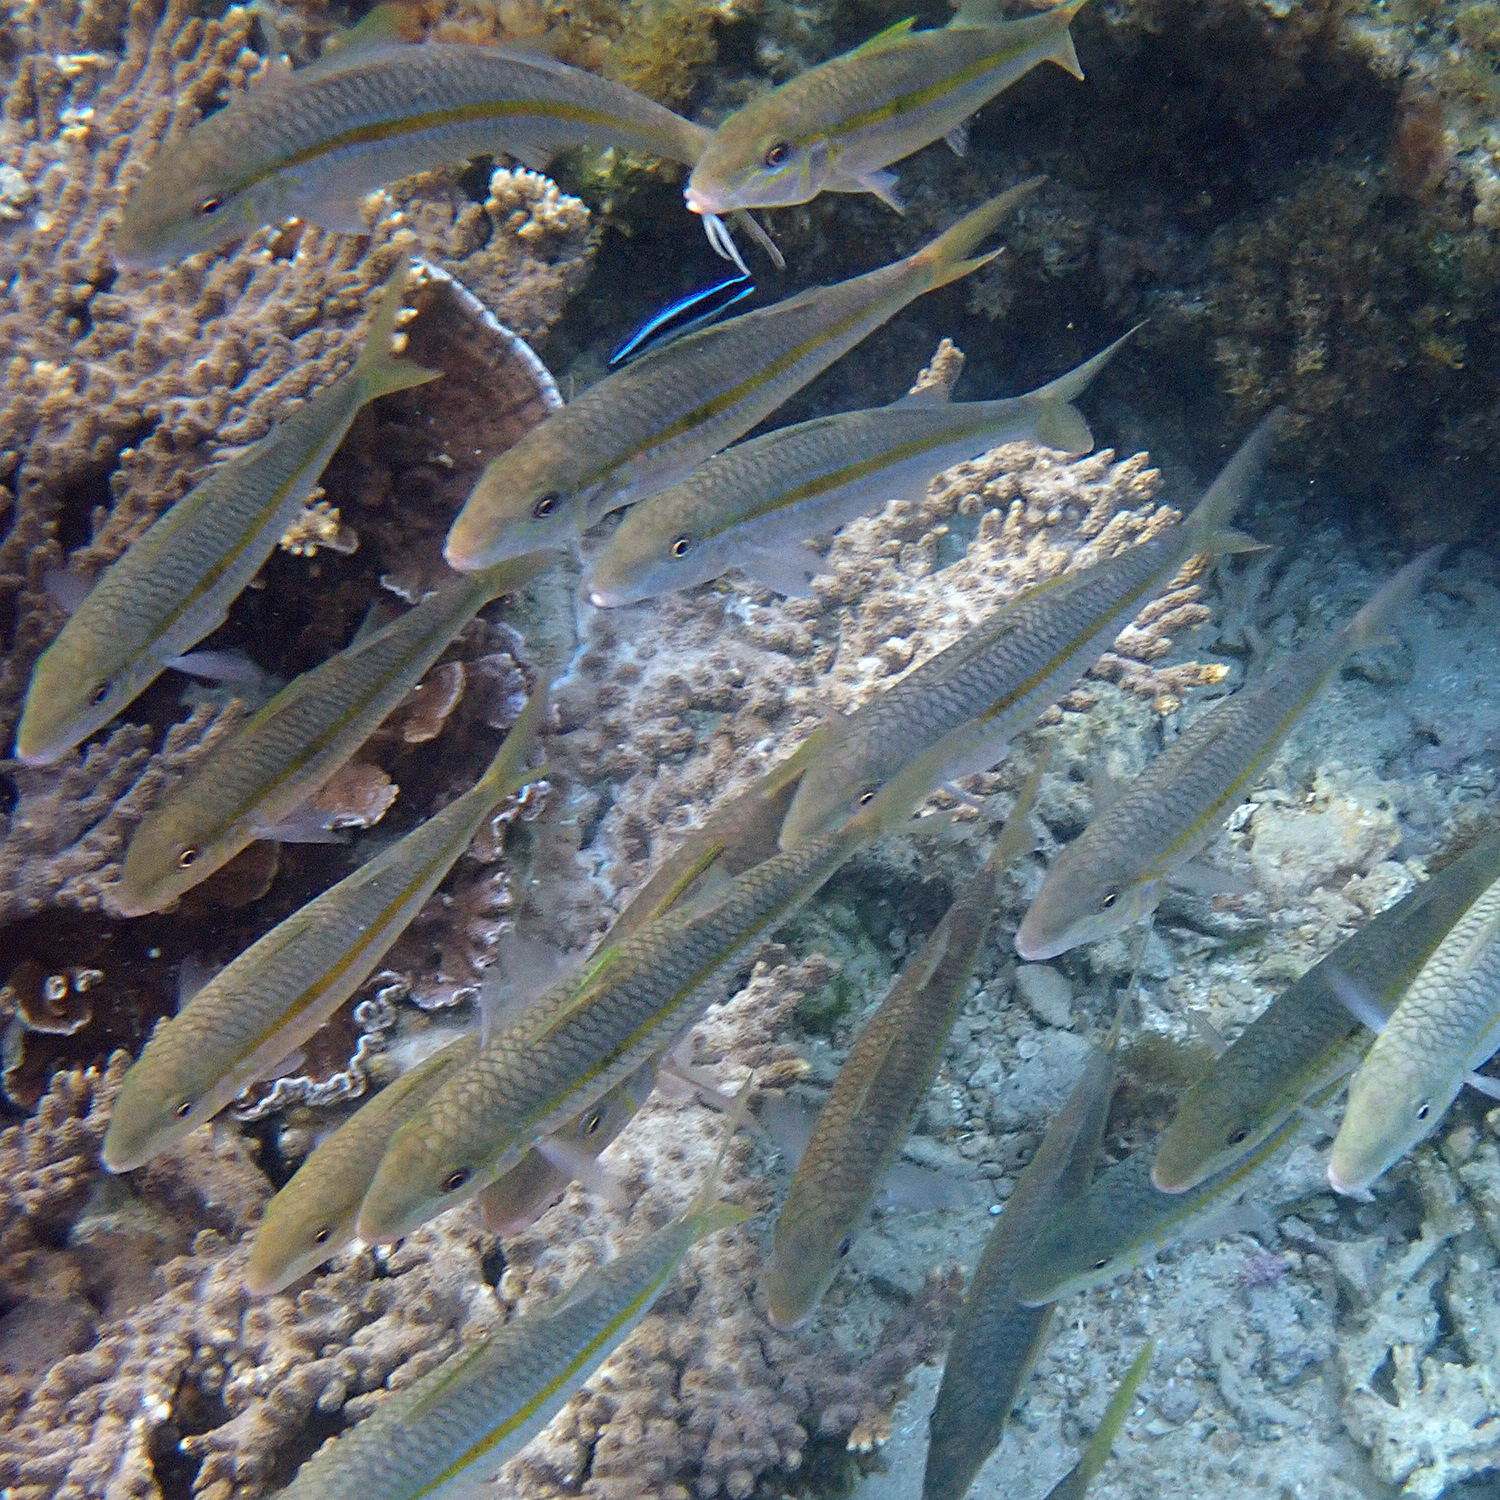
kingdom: Animalia
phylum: Chordata
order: Perciformes
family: Mullidae
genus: Mulloidichthys
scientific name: Mulloidichthys flavolineatus
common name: Yellowstripe goatfish
